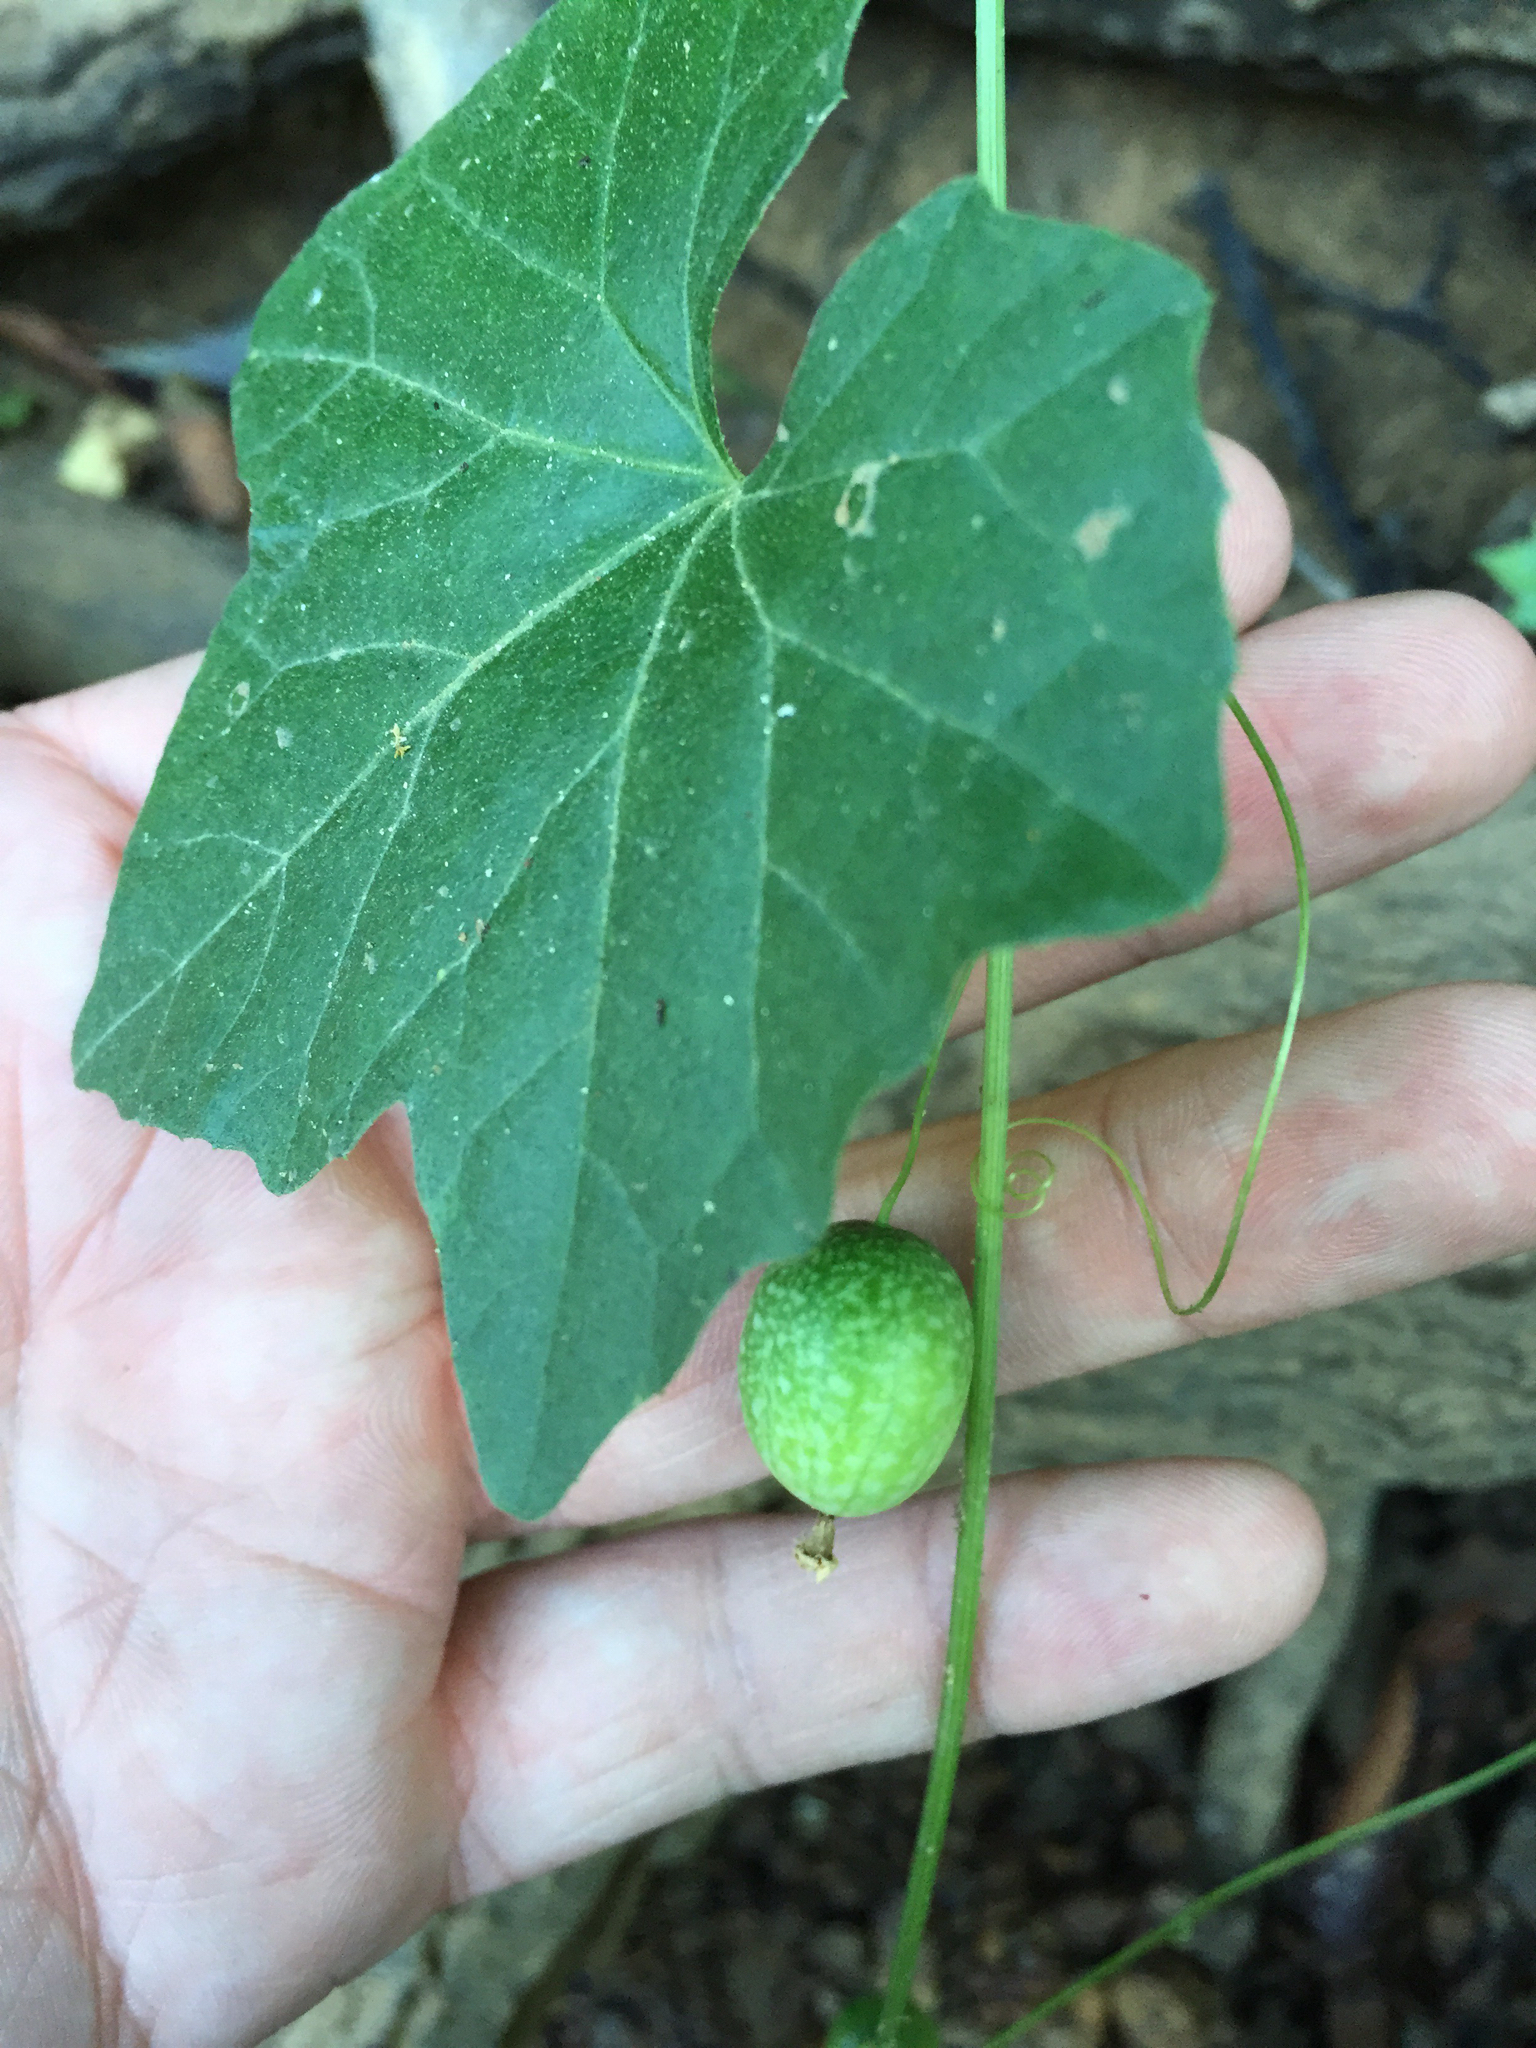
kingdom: Plantae
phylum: Tracheophyta
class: Magnoliopsida
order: Cucurbitales
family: Cucurbitaceae
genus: Melothria
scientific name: Melothria pendula
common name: Creeping-cucumber
